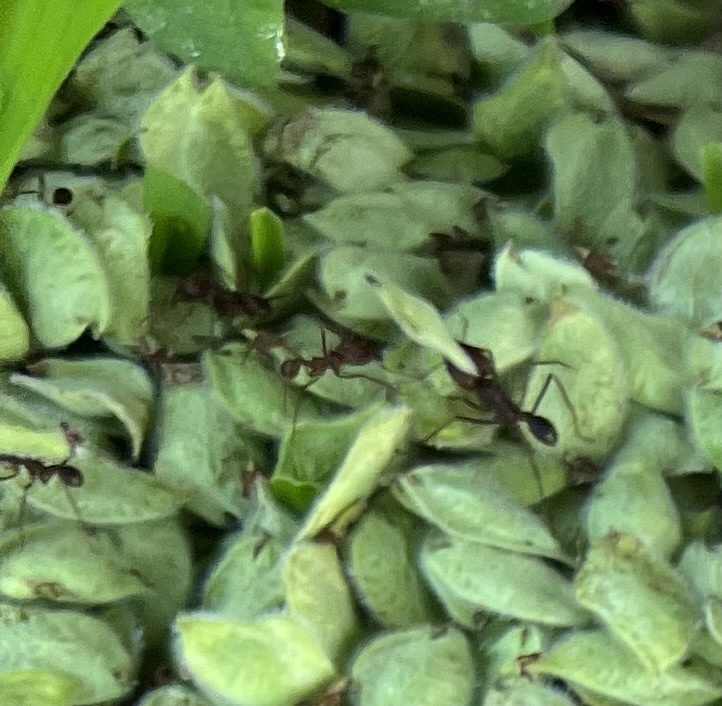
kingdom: Animalia
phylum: Arthropoda
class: Insecta
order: Hymenoptera
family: Formicidae
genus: Atta
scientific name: Atta texana
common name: Texas leafcutting ant
